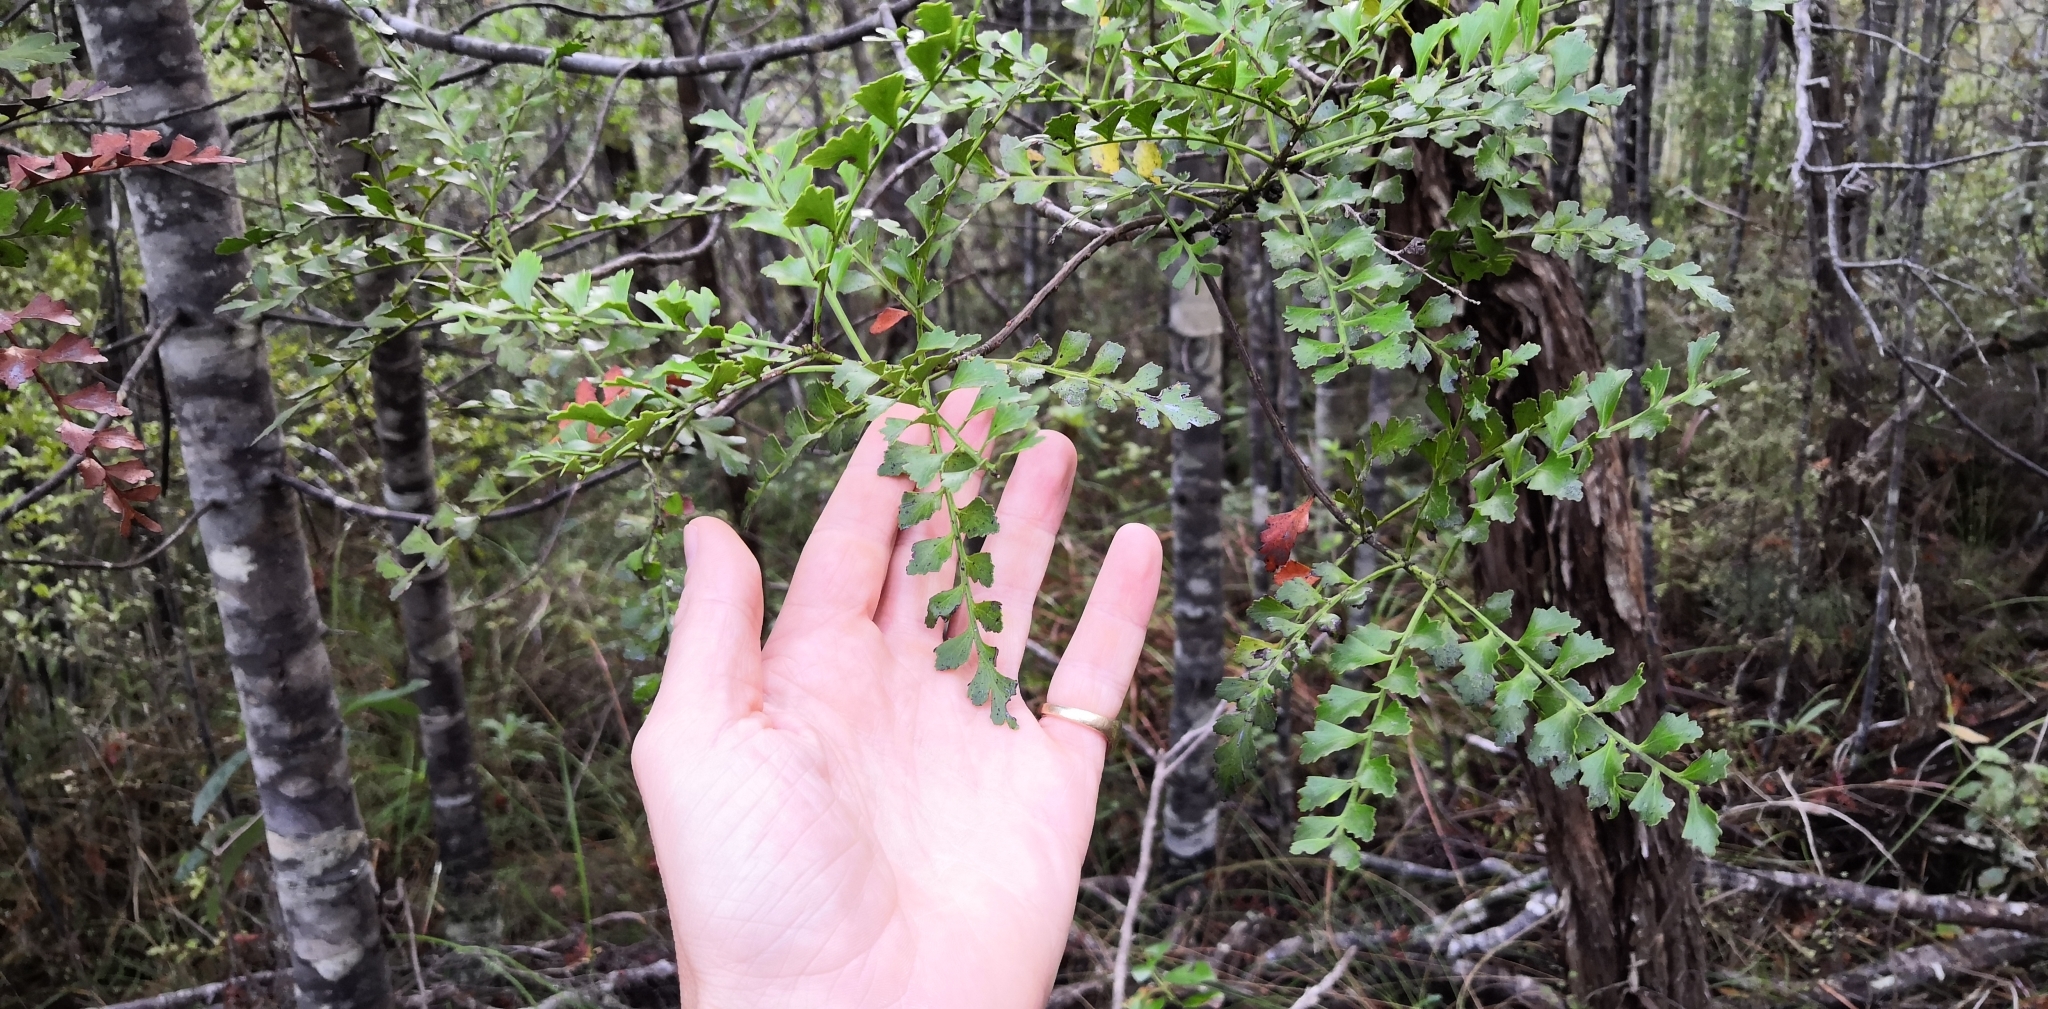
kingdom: Plantae
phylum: Tracheophyta
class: Pinopsida
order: Pinales
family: Phyllocladaceae
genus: Phyllocladus
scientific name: Phyllocladus trichomanoides
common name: Celery pine
